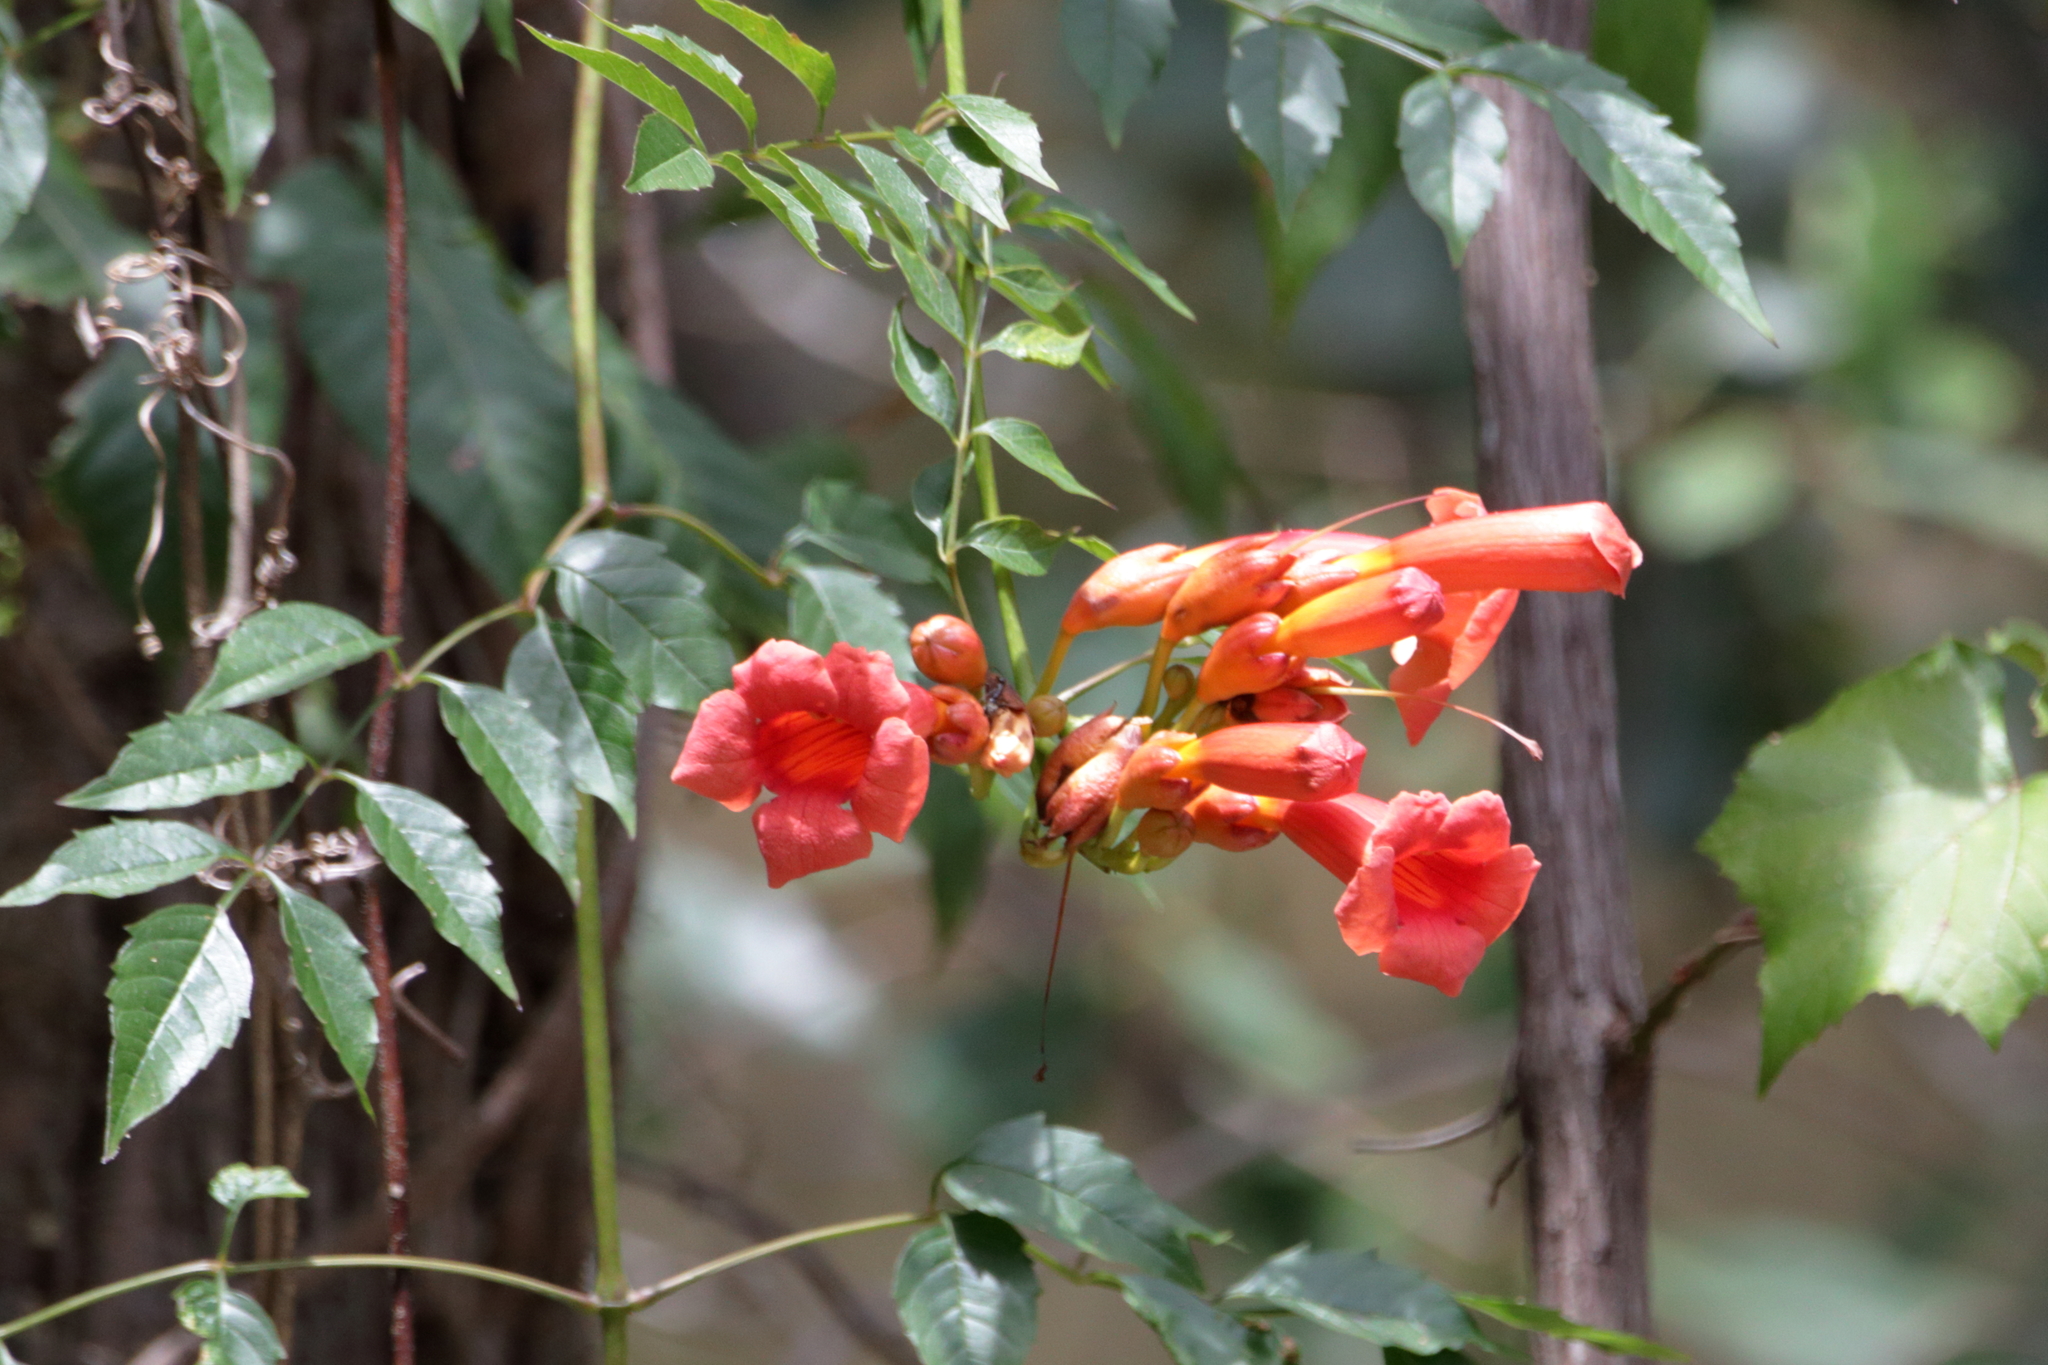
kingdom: Plantae
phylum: Tracheophyta
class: Magnoliopsida
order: Lamiales
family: Bignoniaceae
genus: Campsis
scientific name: Campsis radicans
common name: Trumpet-creeper
